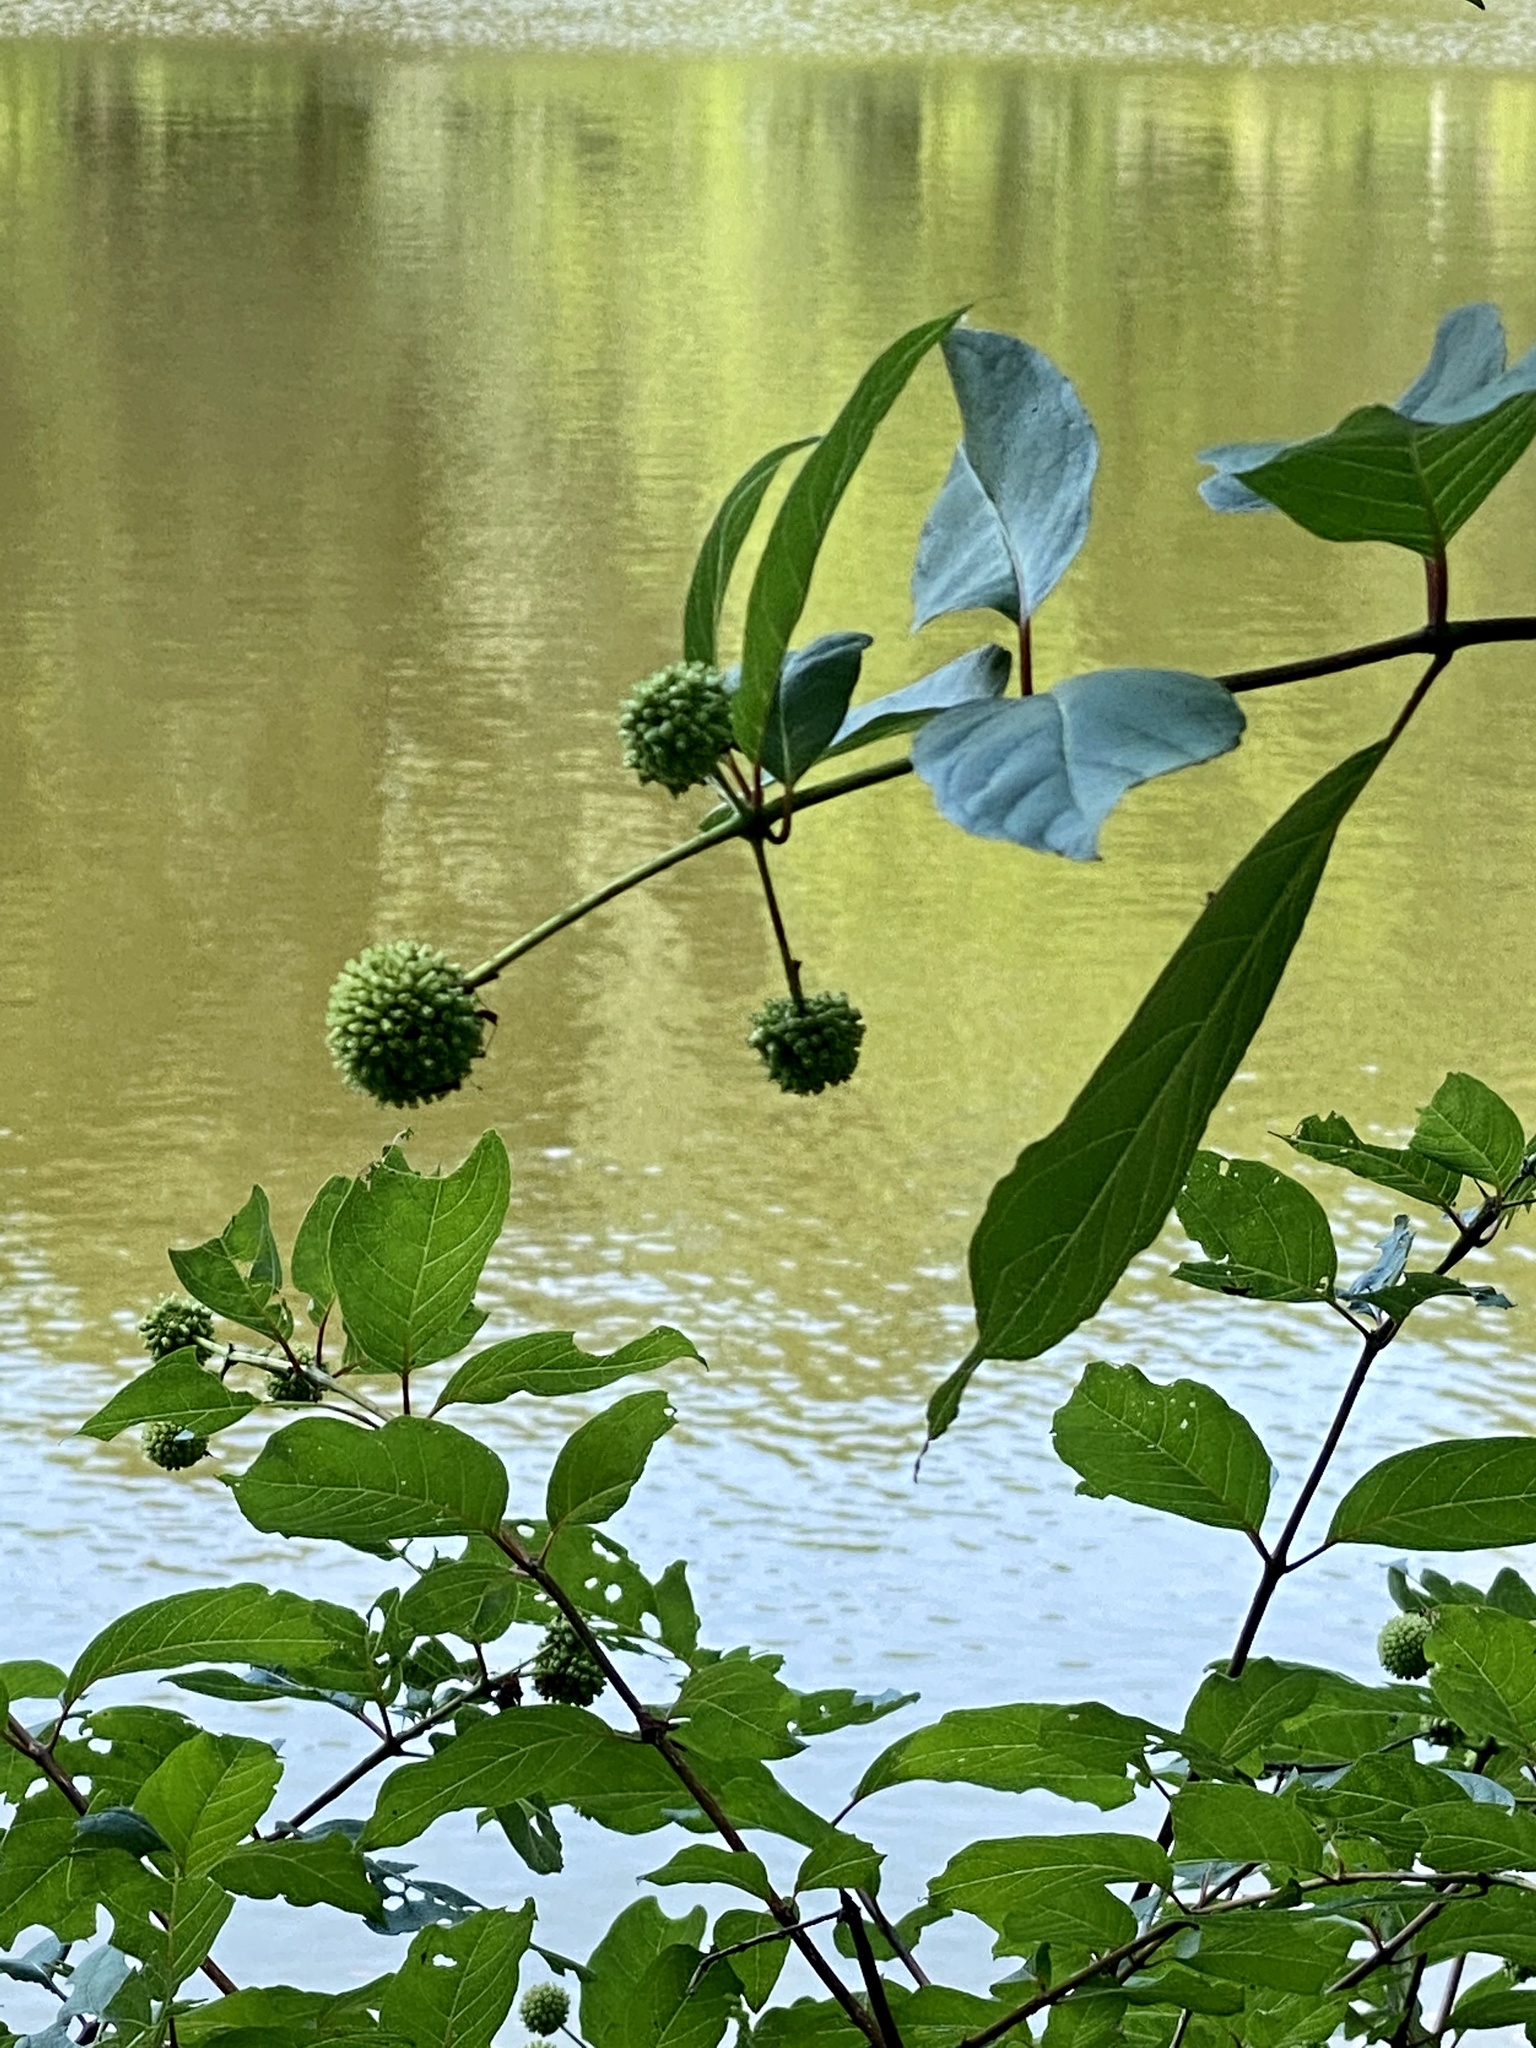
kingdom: Plantae
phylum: Tracheophyta
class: Magnoliopsida
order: Gentianales
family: Rubiaceae
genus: Cephalanthus
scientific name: Cephalanthus occidentalis
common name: Button-willow
